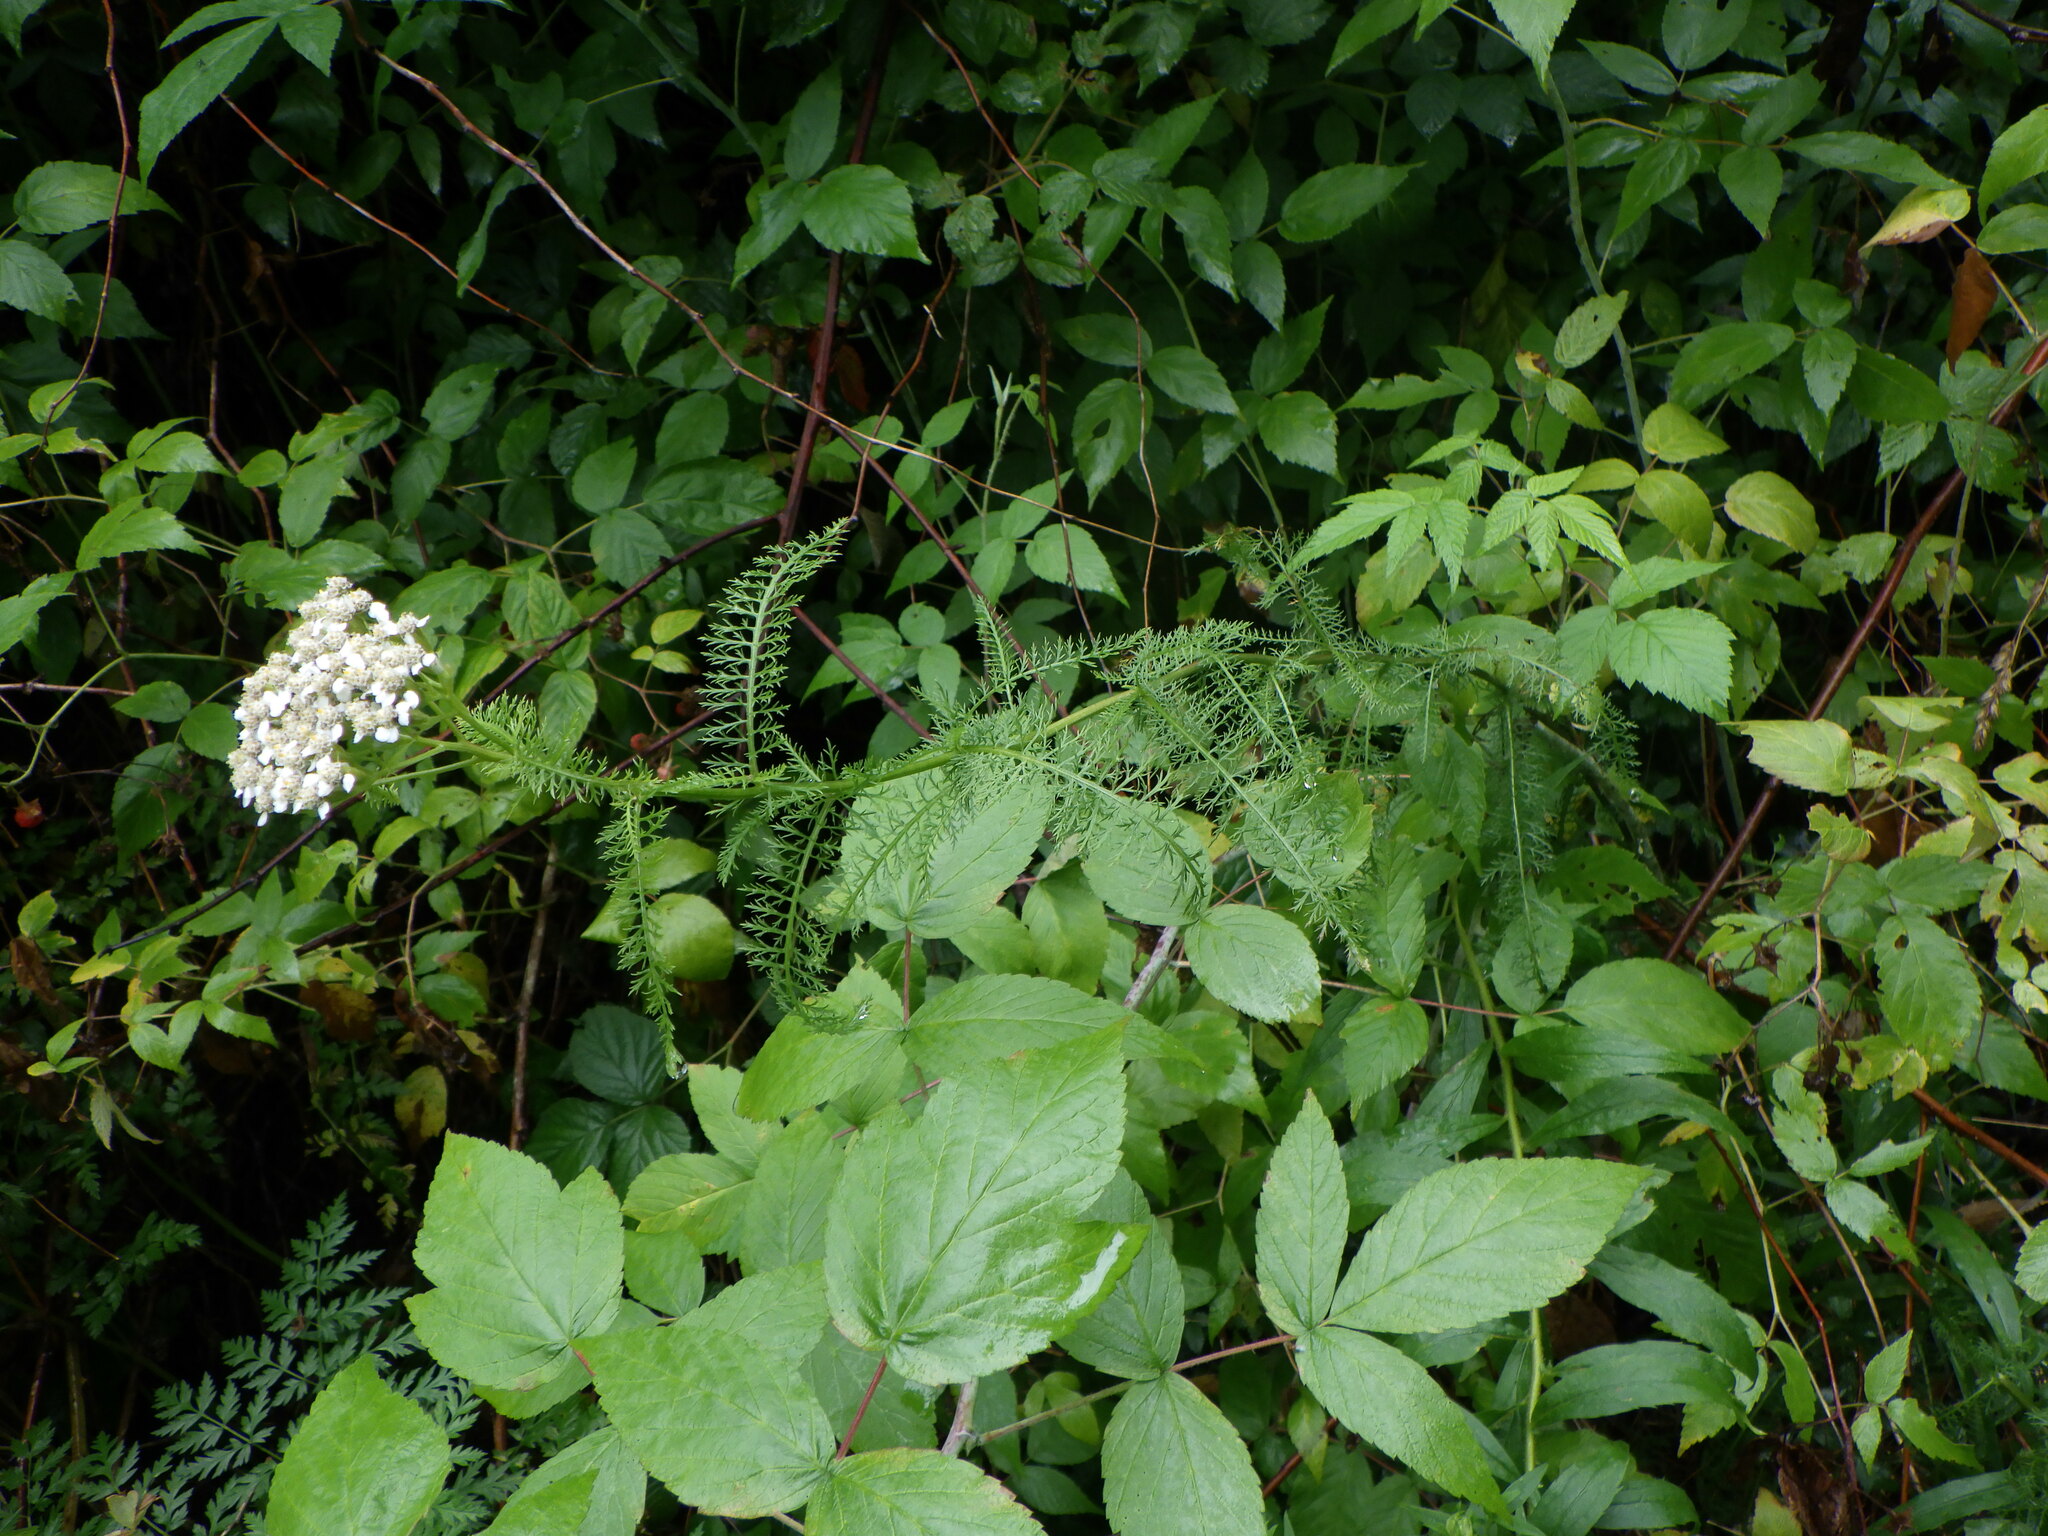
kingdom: Plantae
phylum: Tracheophyta
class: Magnoliopsida
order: Asterales
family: Asteraceae
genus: Achillea
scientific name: Achillea millefolium
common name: Yarrow
